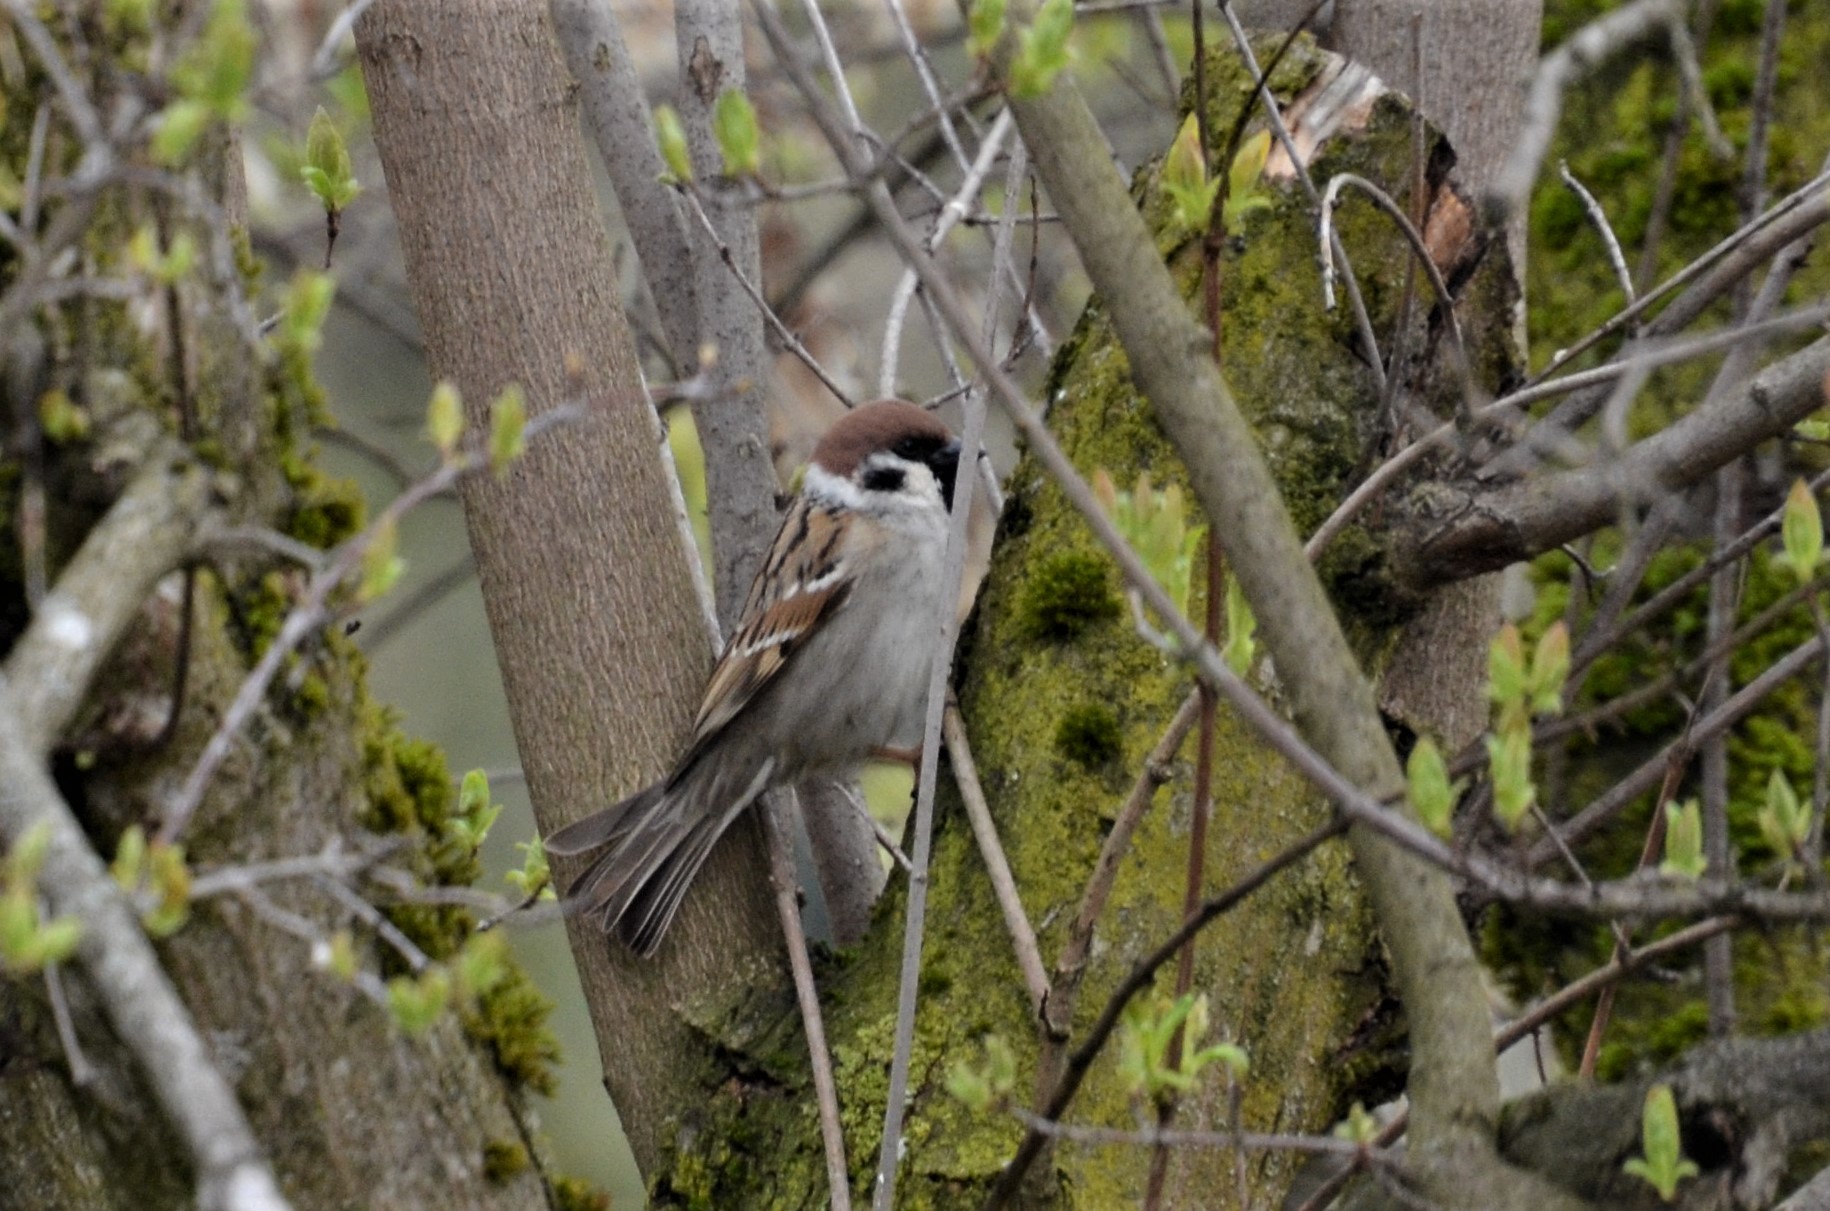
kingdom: Animalia
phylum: Chordata
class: Aves
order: Passeriformes
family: Passeridae
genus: Passer
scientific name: Passer montanus
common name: Eurasian tree sparrow
